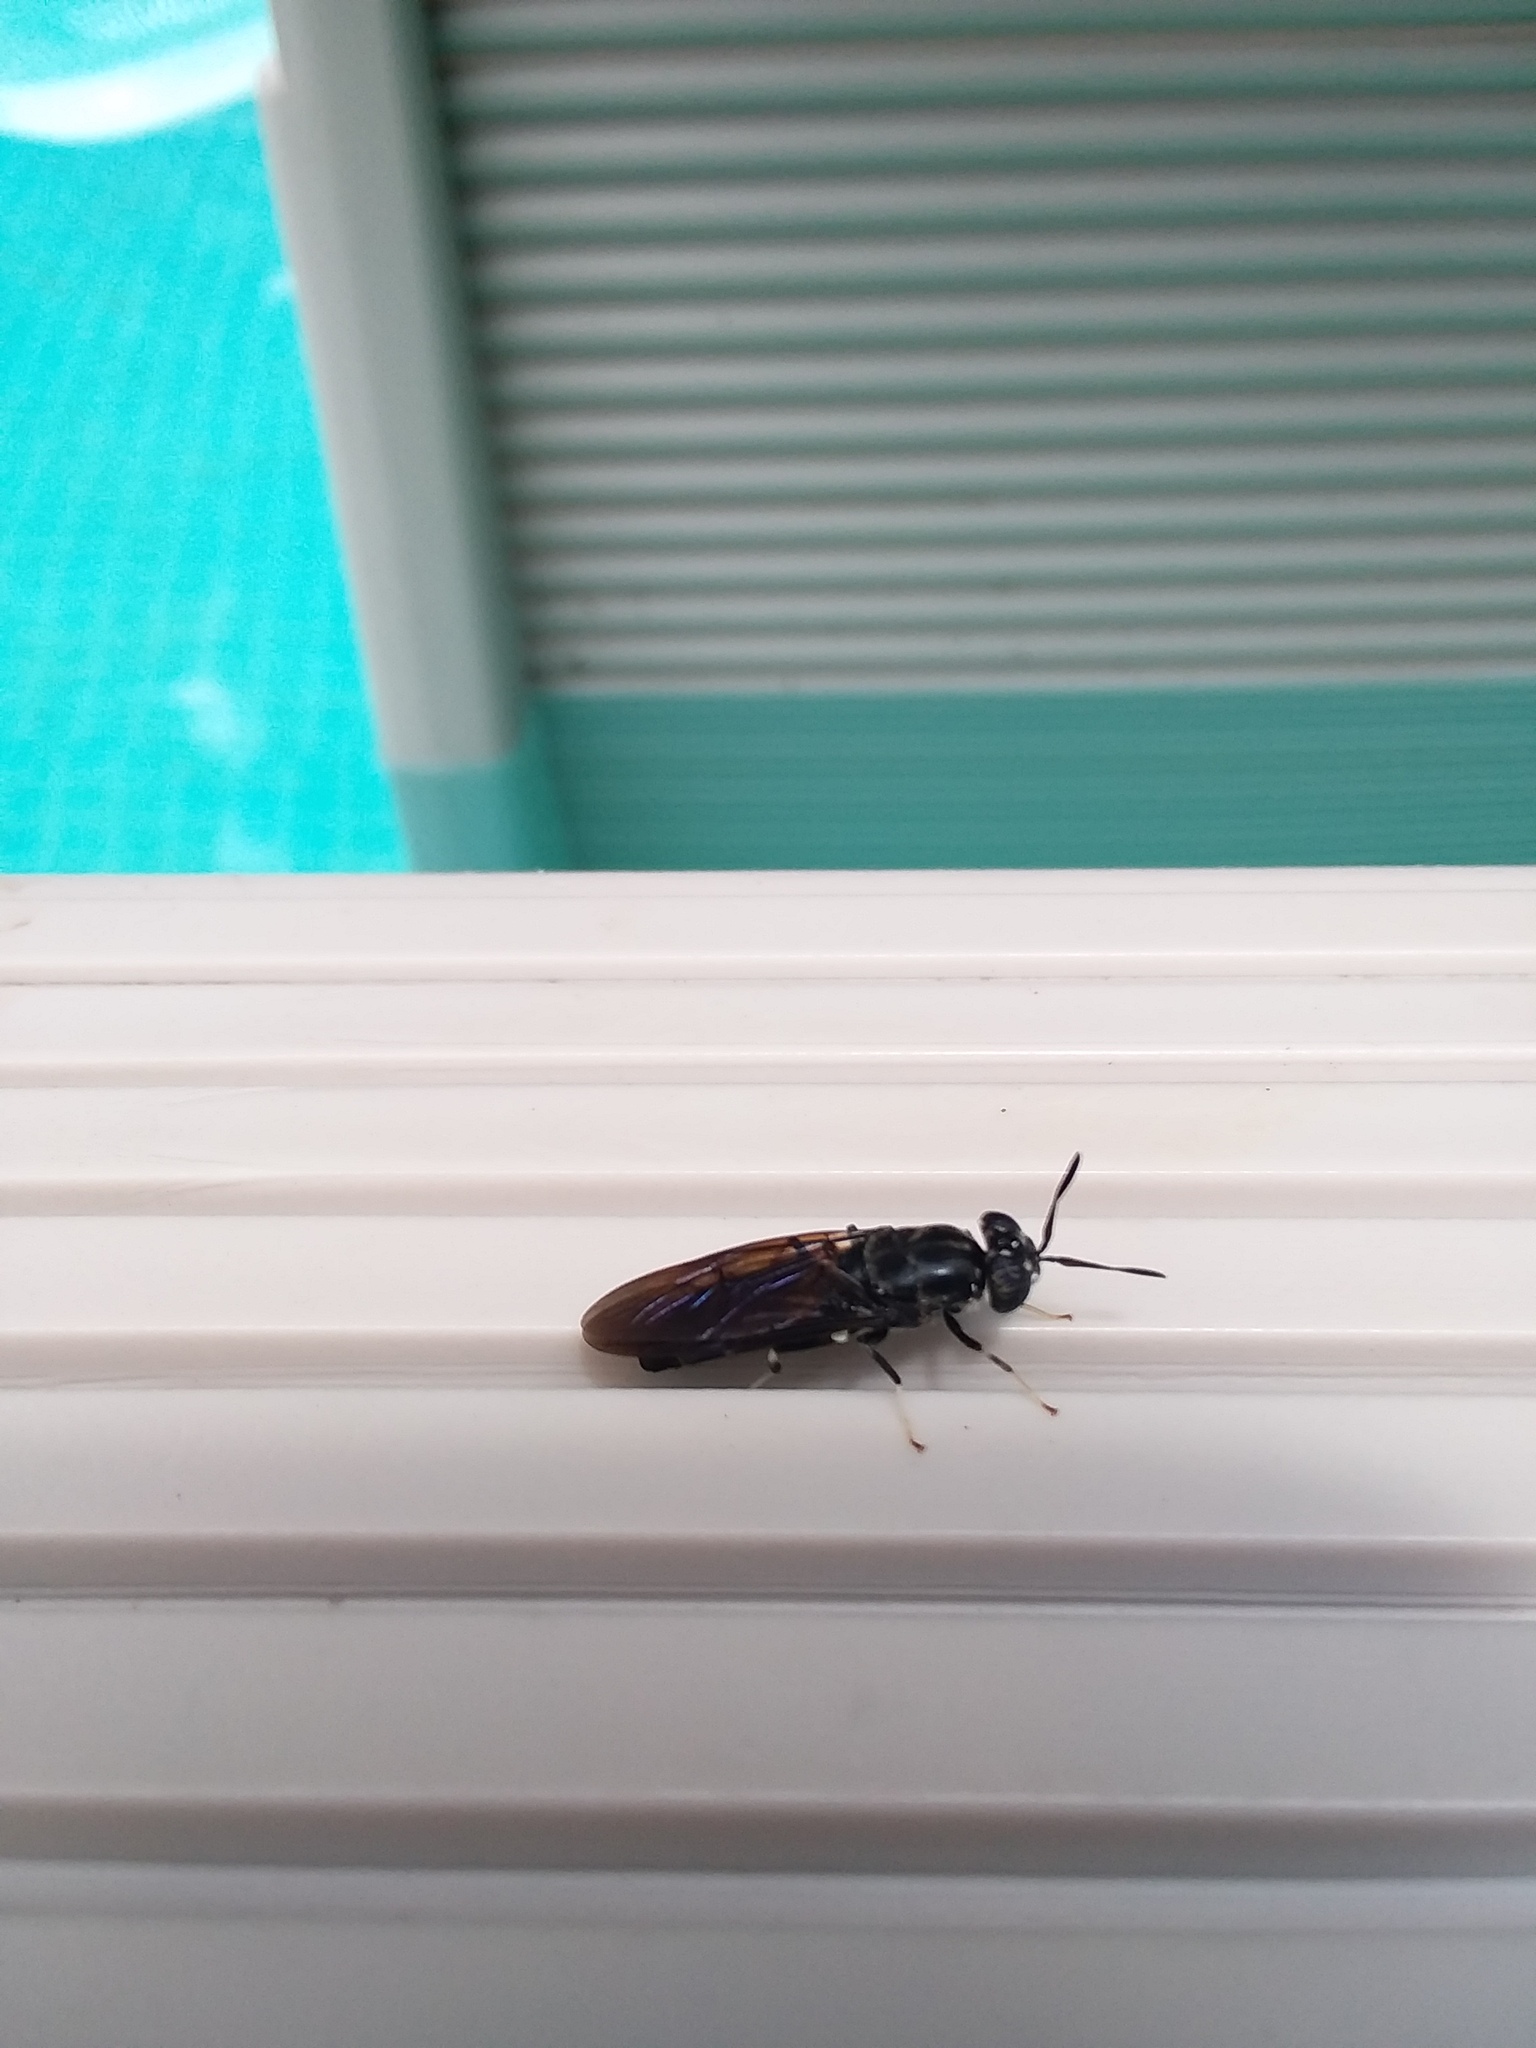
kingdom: Animalia
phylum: Arthropoda
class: Insecta
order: Diptera
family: Stratiomyidae
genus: Hermetia
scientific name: Hermetia illucens
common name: Black soldier fly
